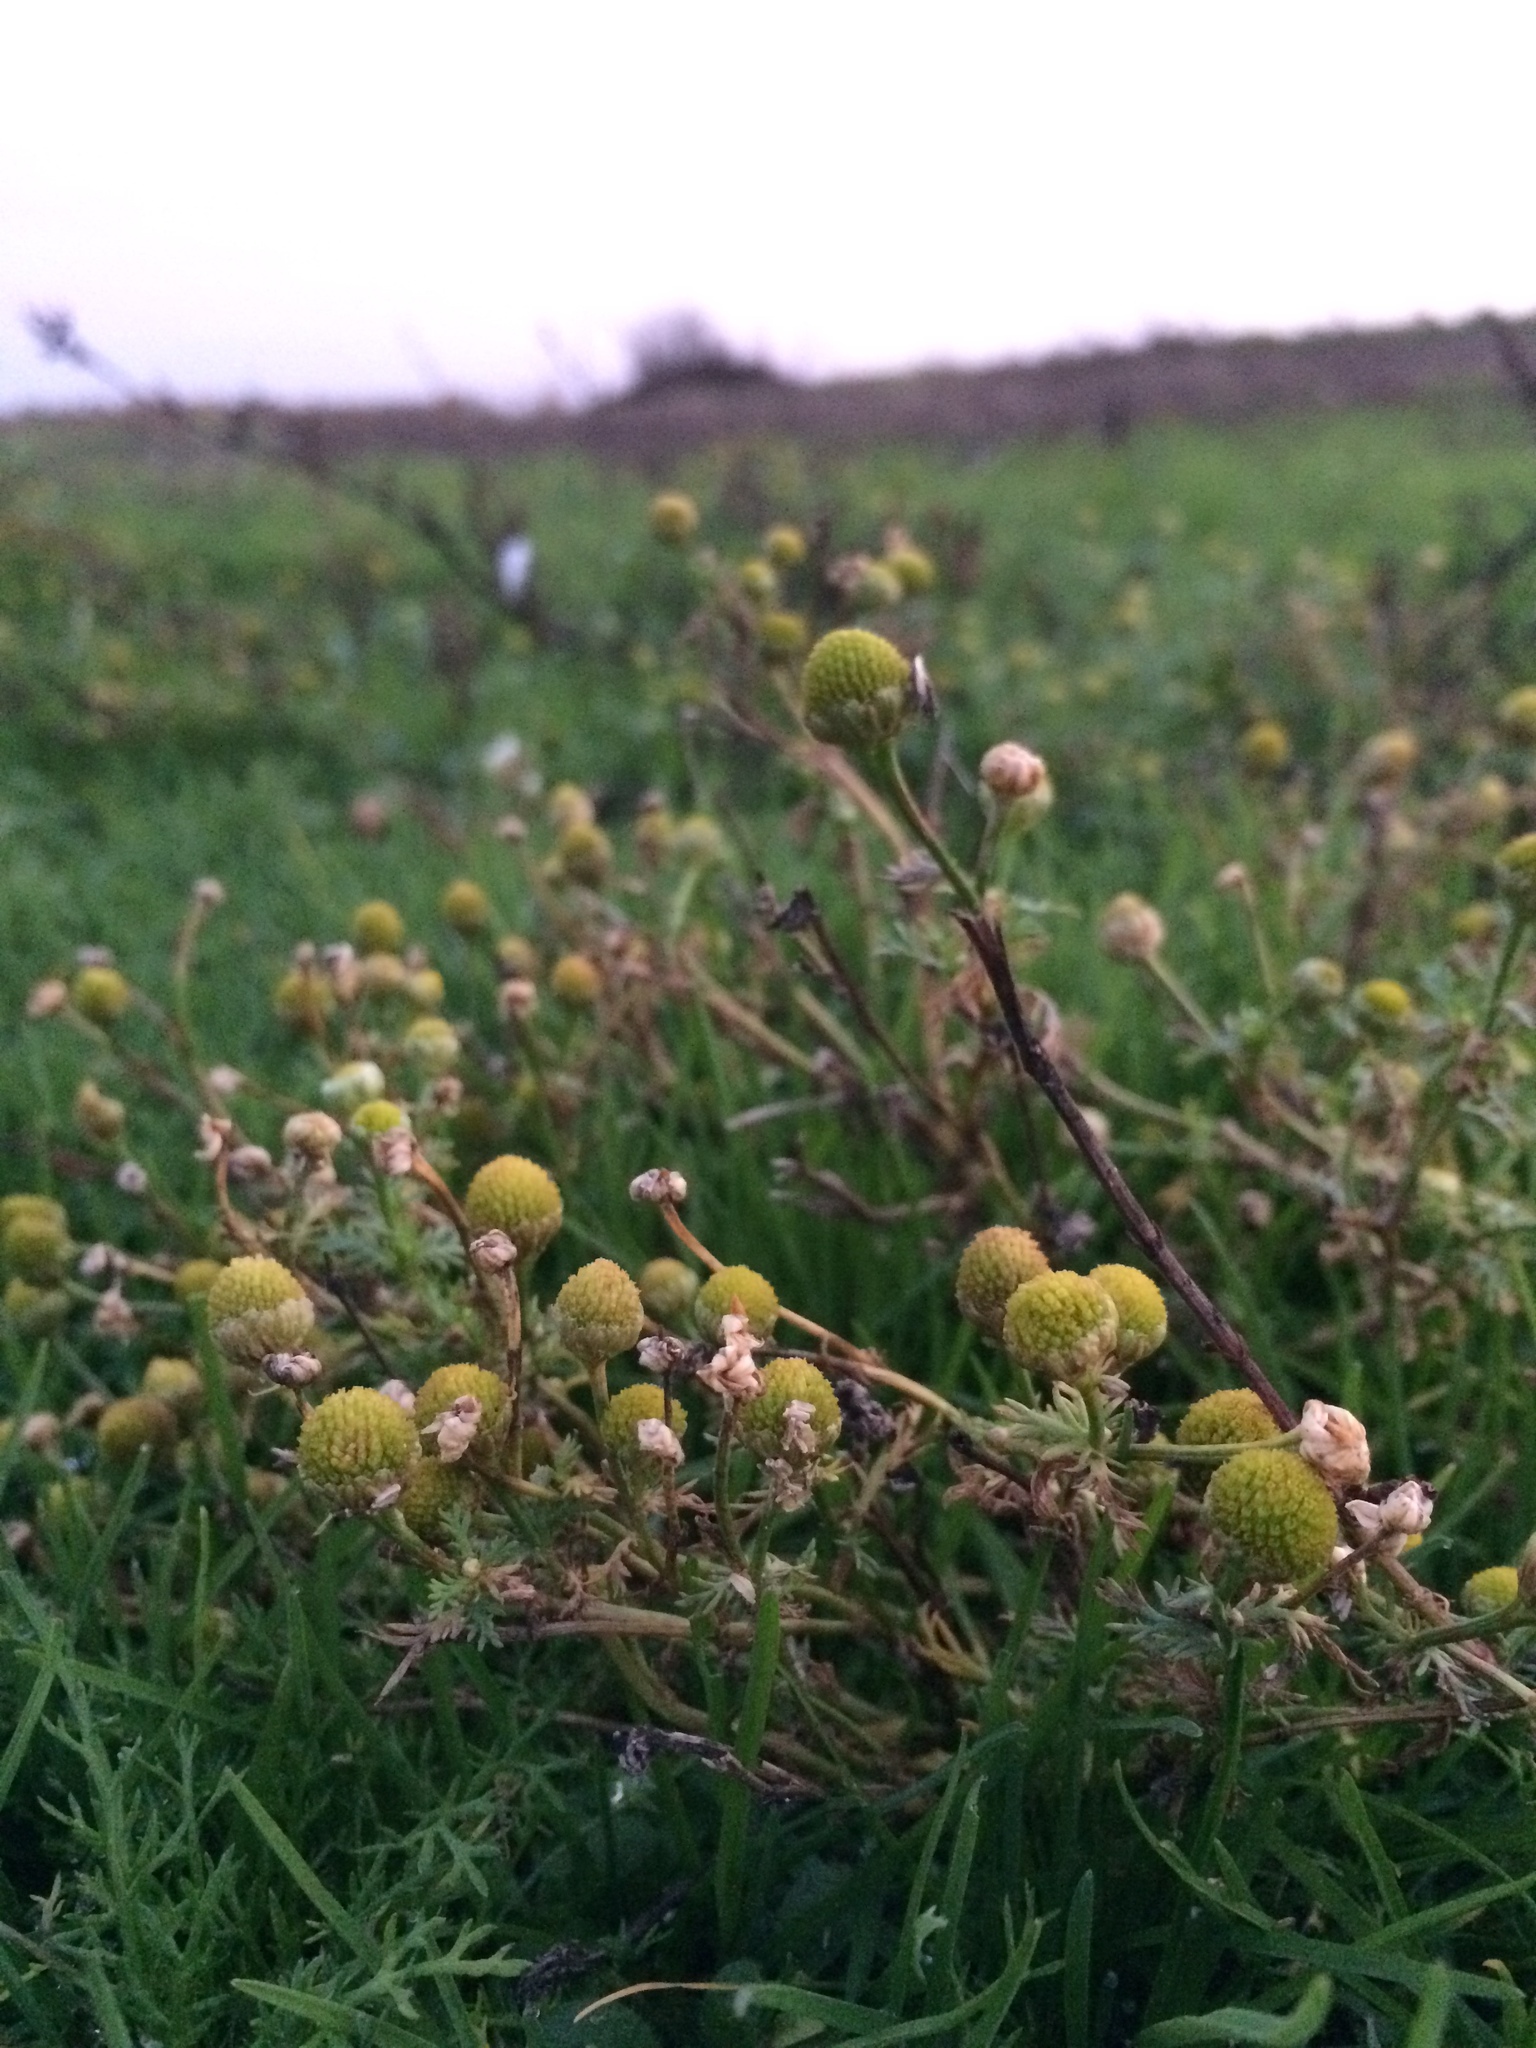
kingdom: Plantae
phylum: Tracheophyta
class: Magnoliopsida
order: Asterales
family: Asteraceae
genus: Matricaria
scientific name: Matricaria discoidea
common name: Disc mayweed
